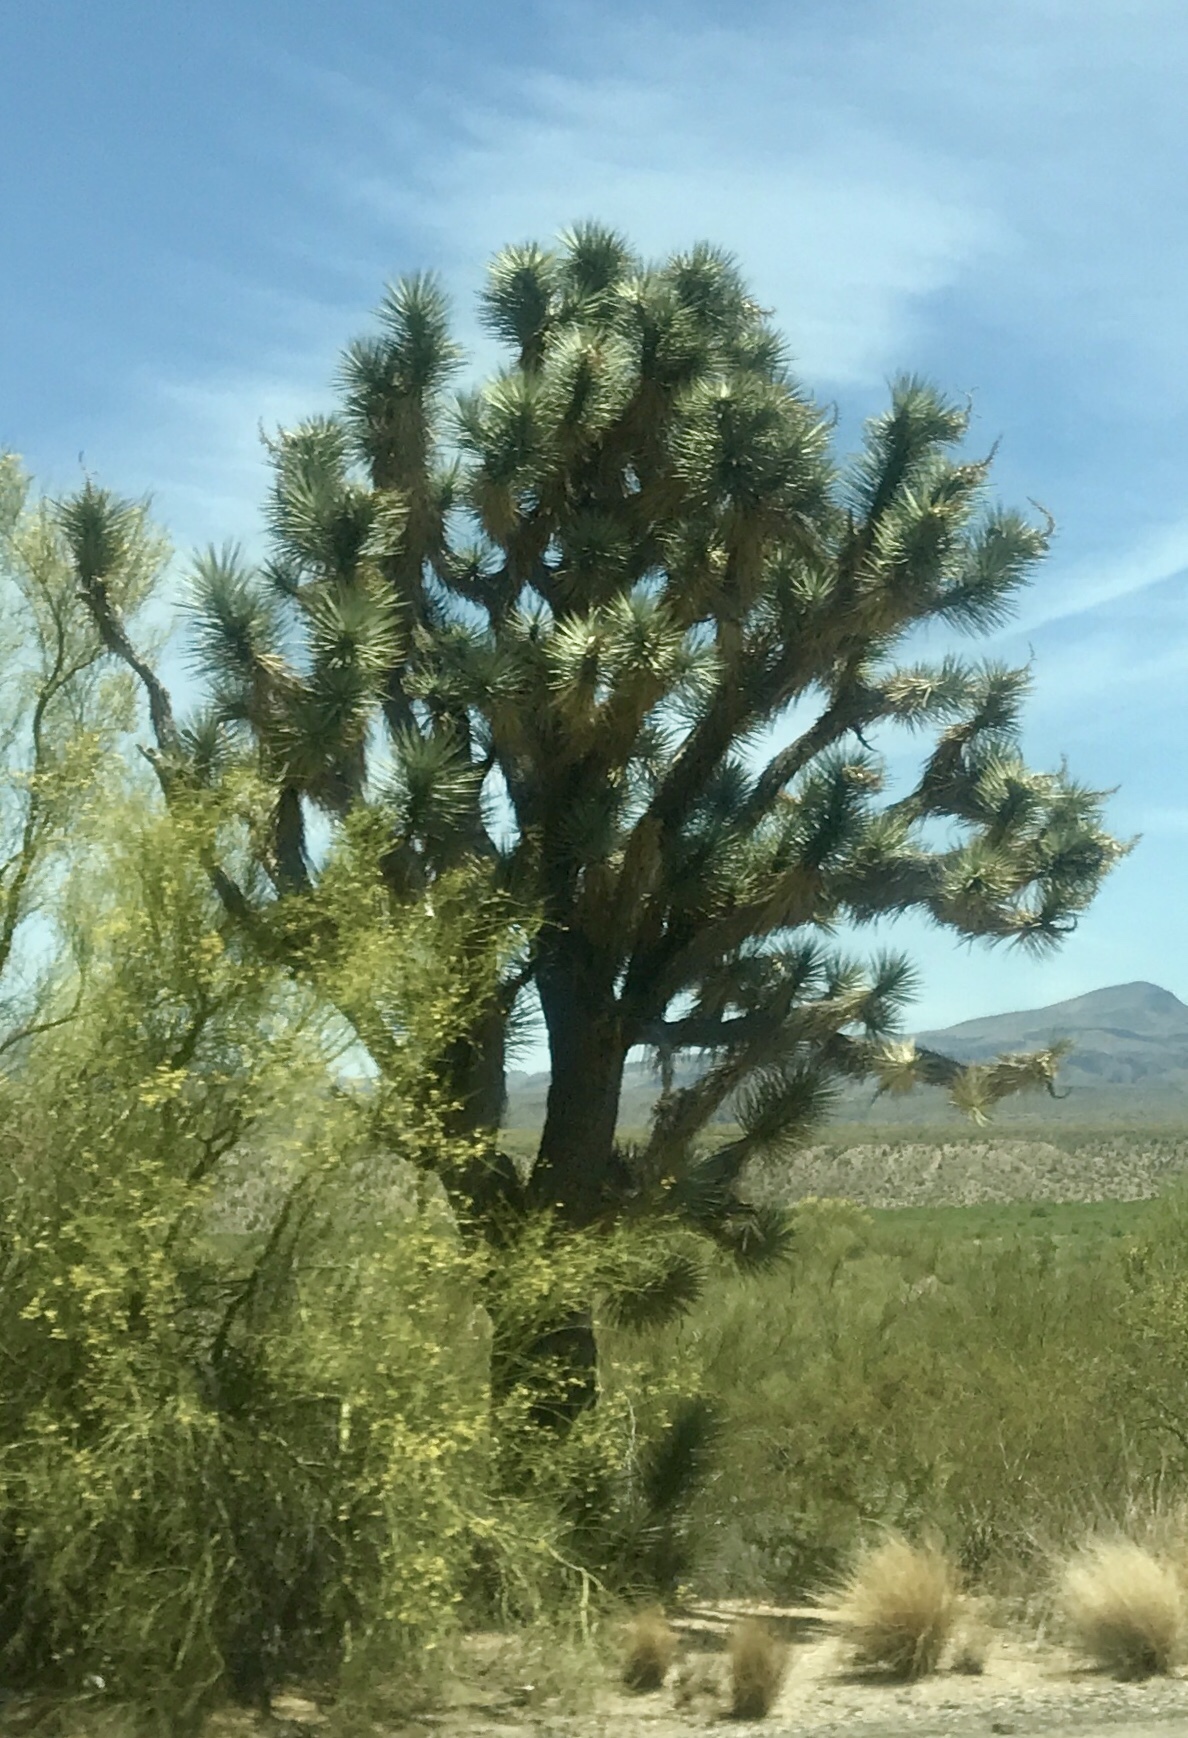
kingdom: Plantae
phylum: Tracheophyta
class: Liliopsida
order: Asparagales
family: Asparagaceae
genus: Yucca
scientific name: Yucca brevifolia
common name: Joshua tree
